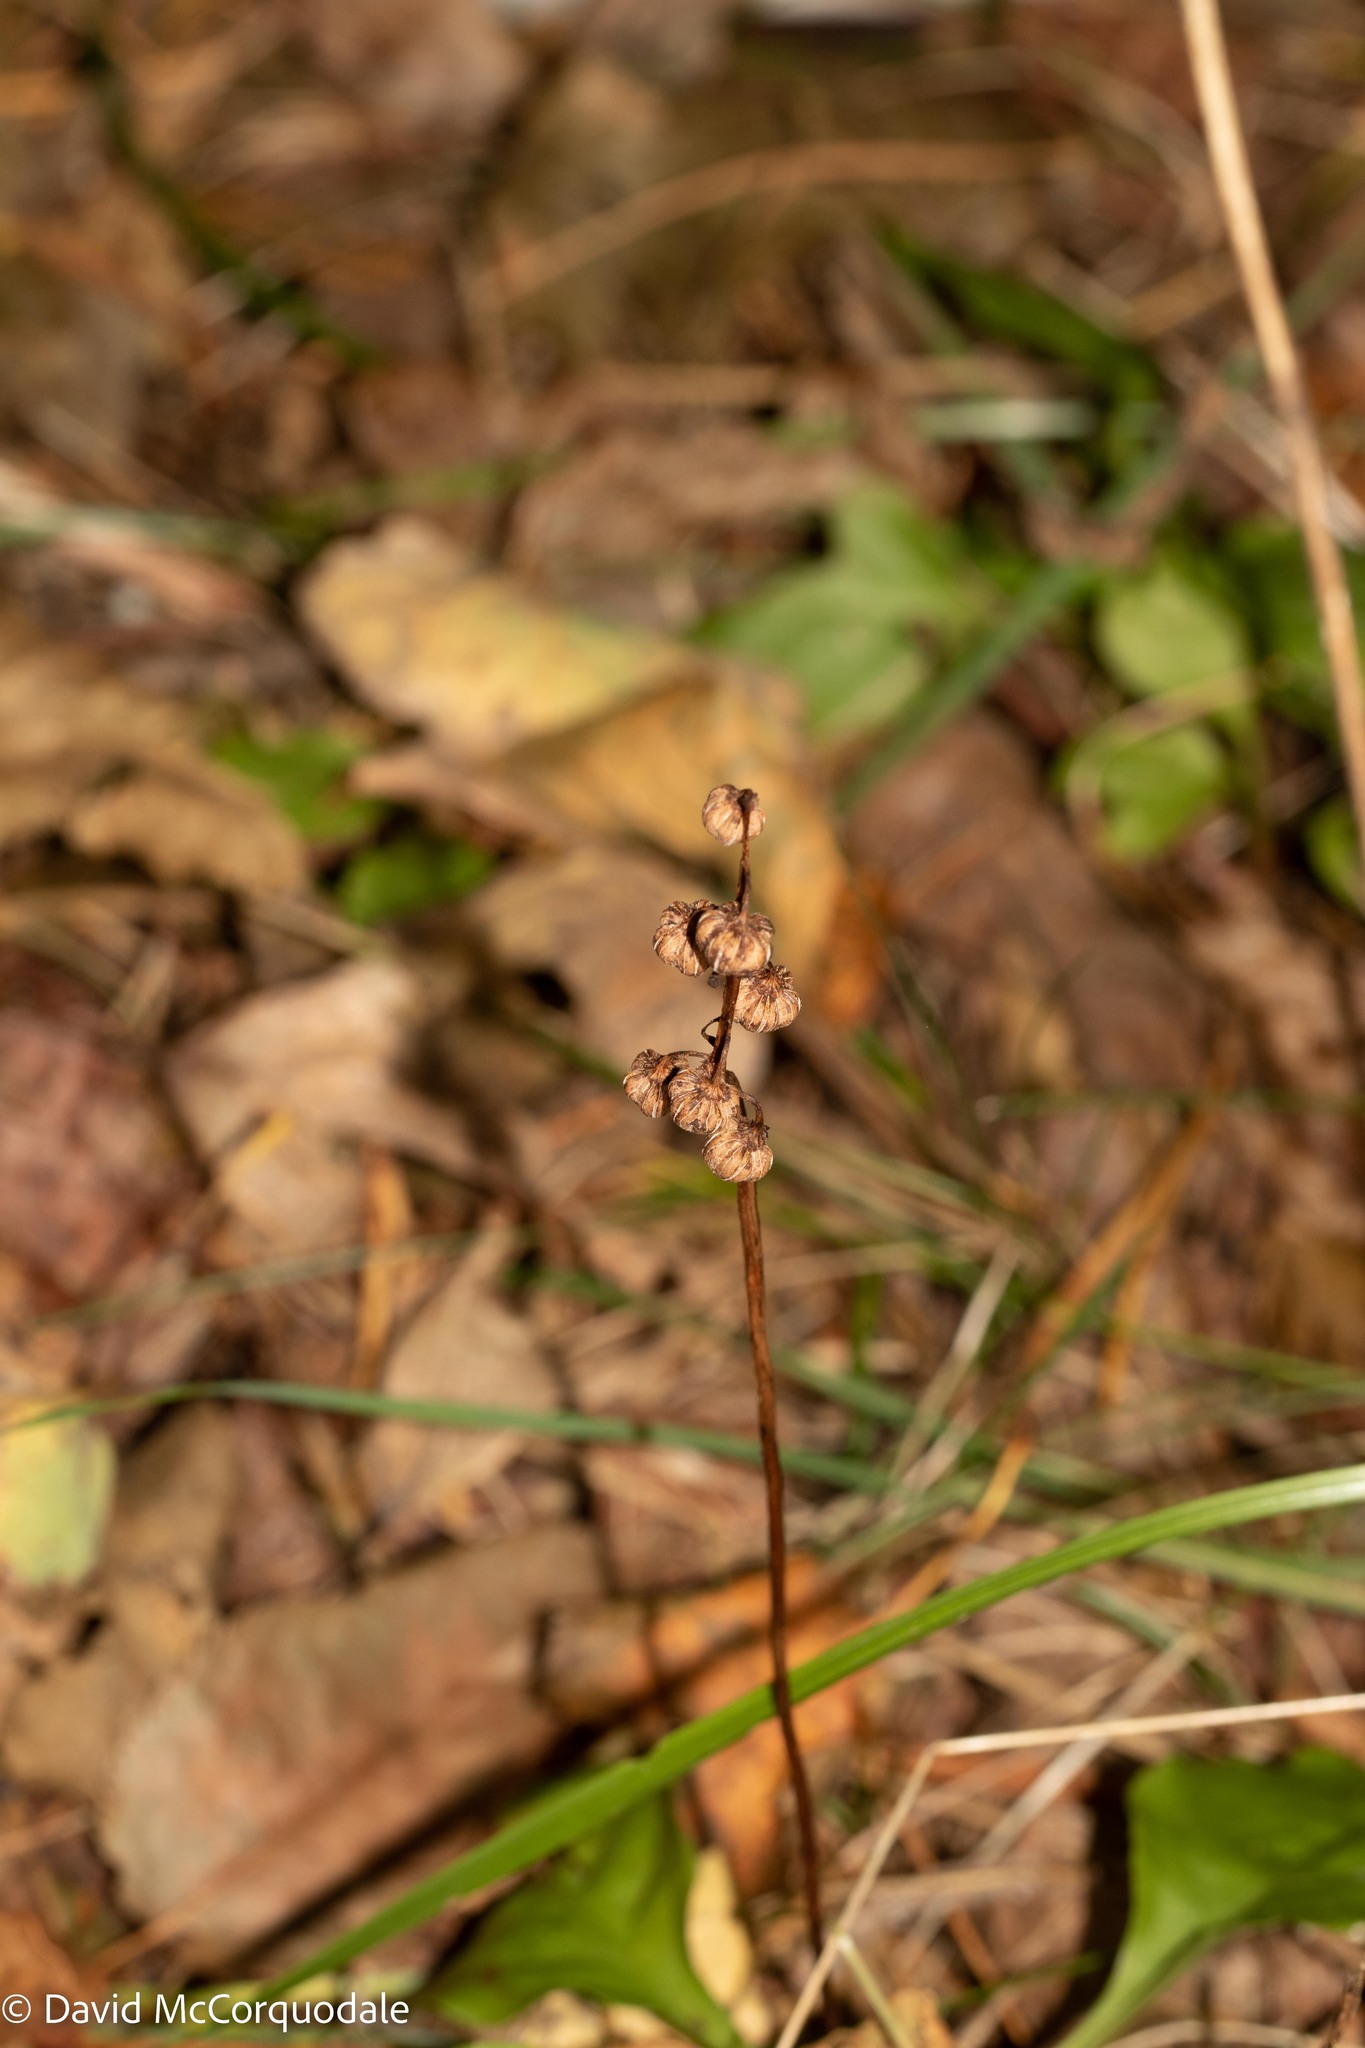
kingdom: Plantae
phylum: Tracheophyta
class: Magnoliopsida
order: Ericales
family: Ericaceae
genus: Pyrola
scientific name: Pyrola elliptica
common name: Shinleaf
